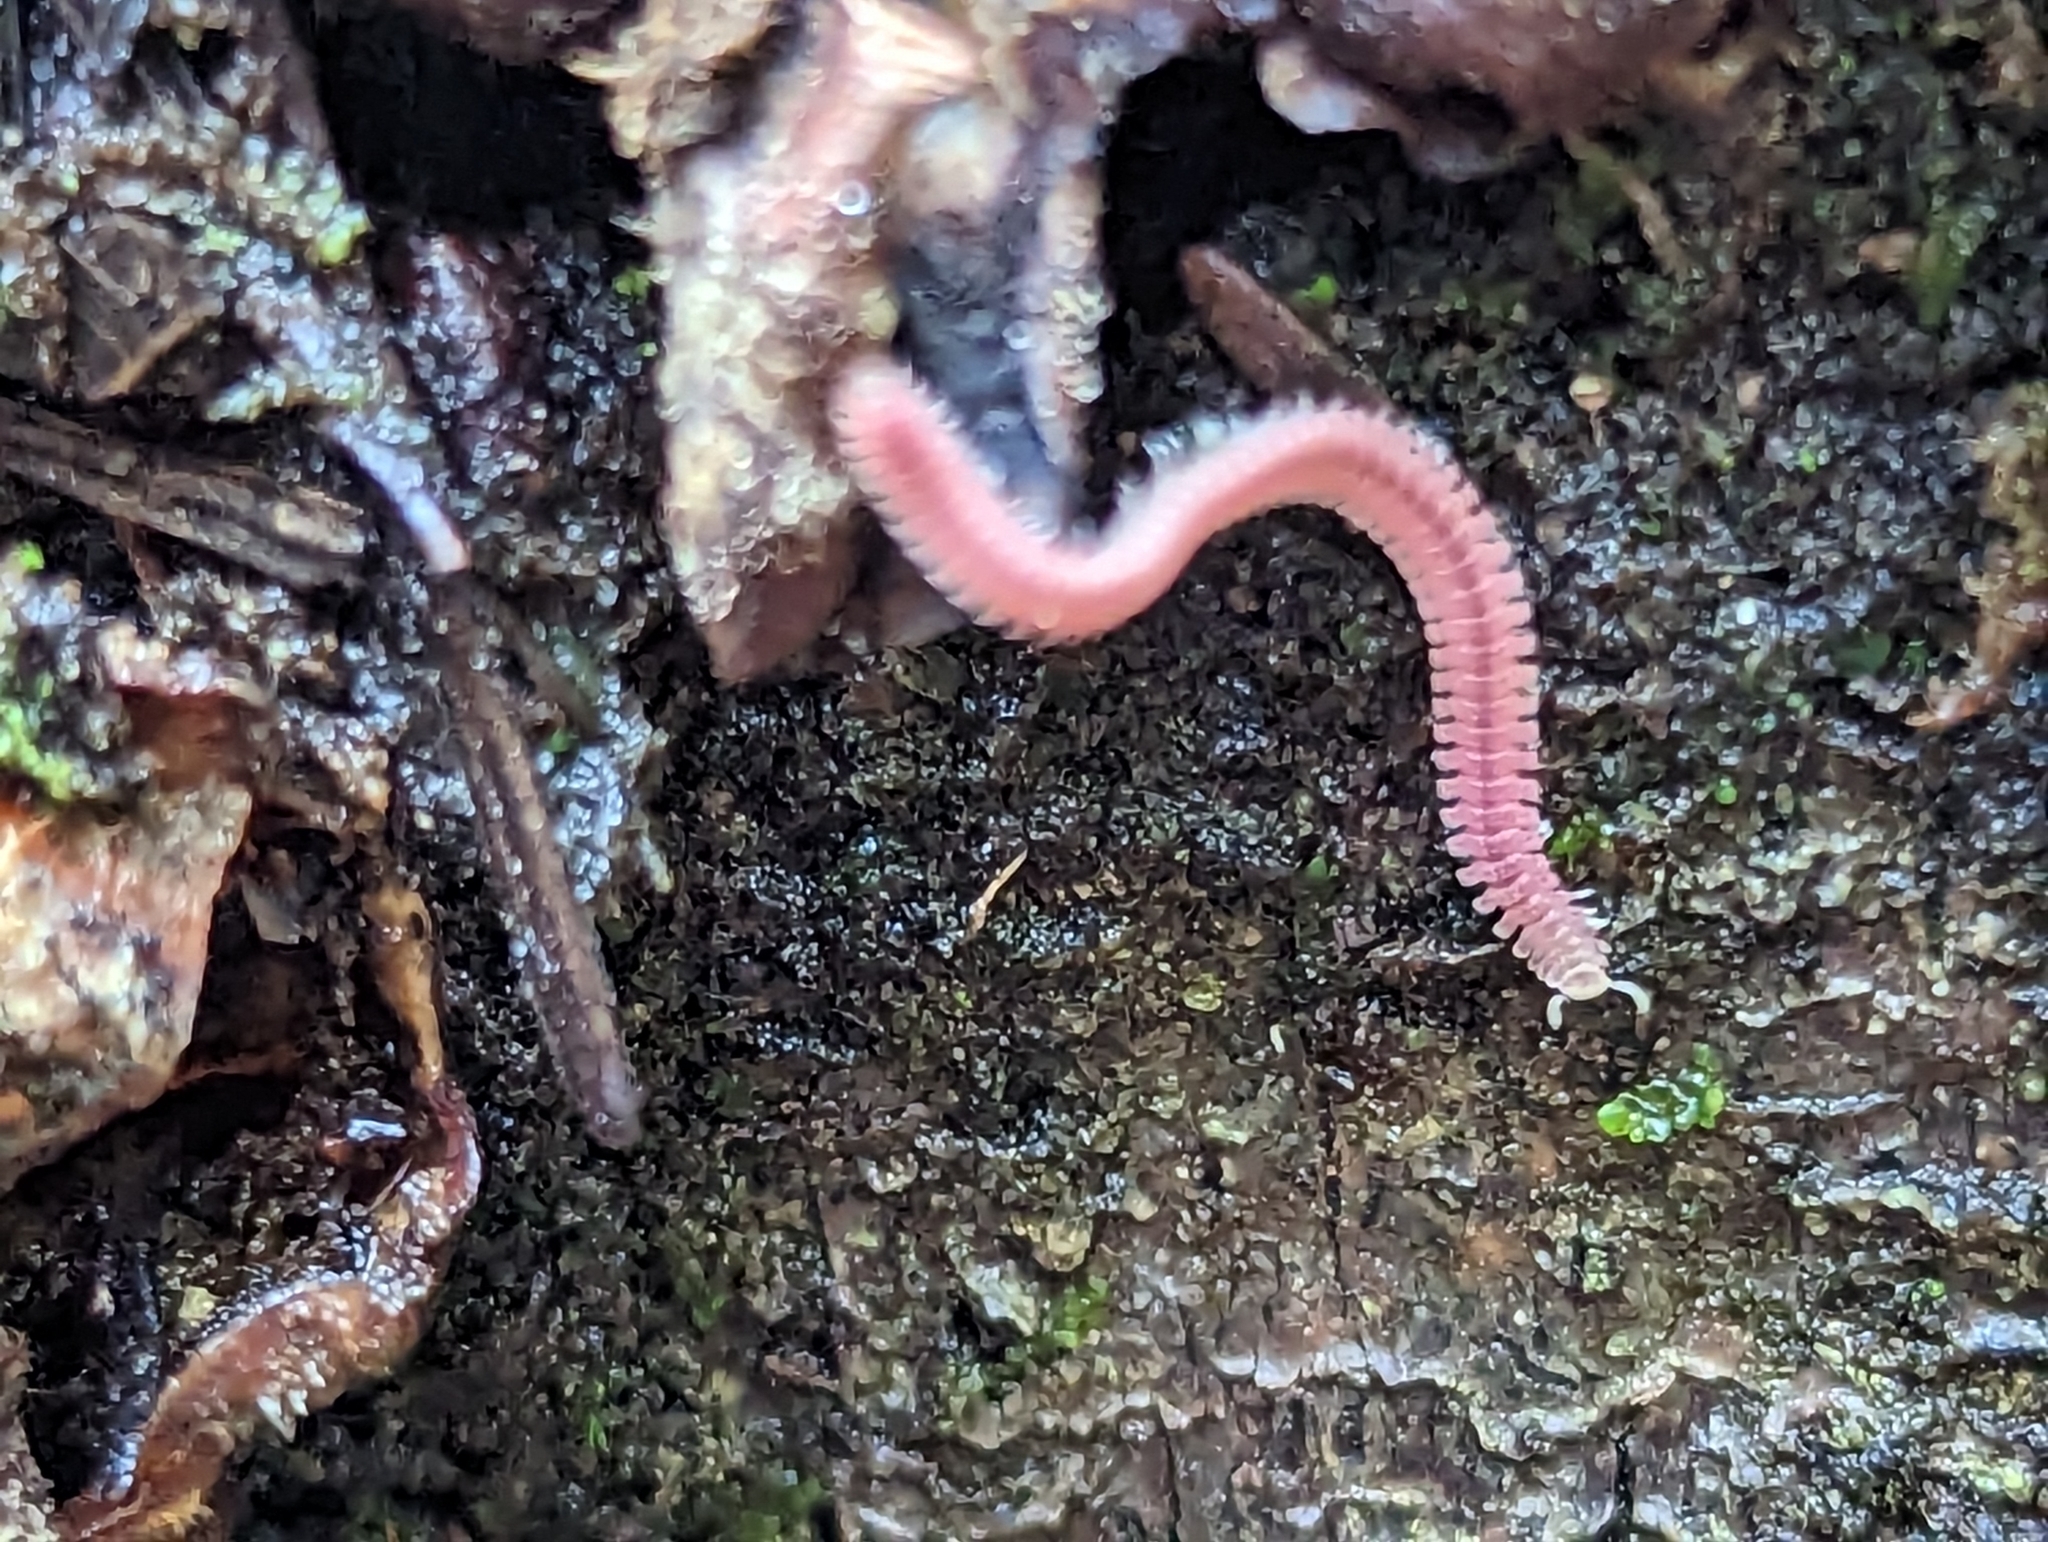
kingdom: Animalia
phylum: Arthropoda
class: Diplopoda
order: Platydesmida
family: Andrognathidae
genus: Gosodesmus
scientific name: Gosodesmus claremontus
